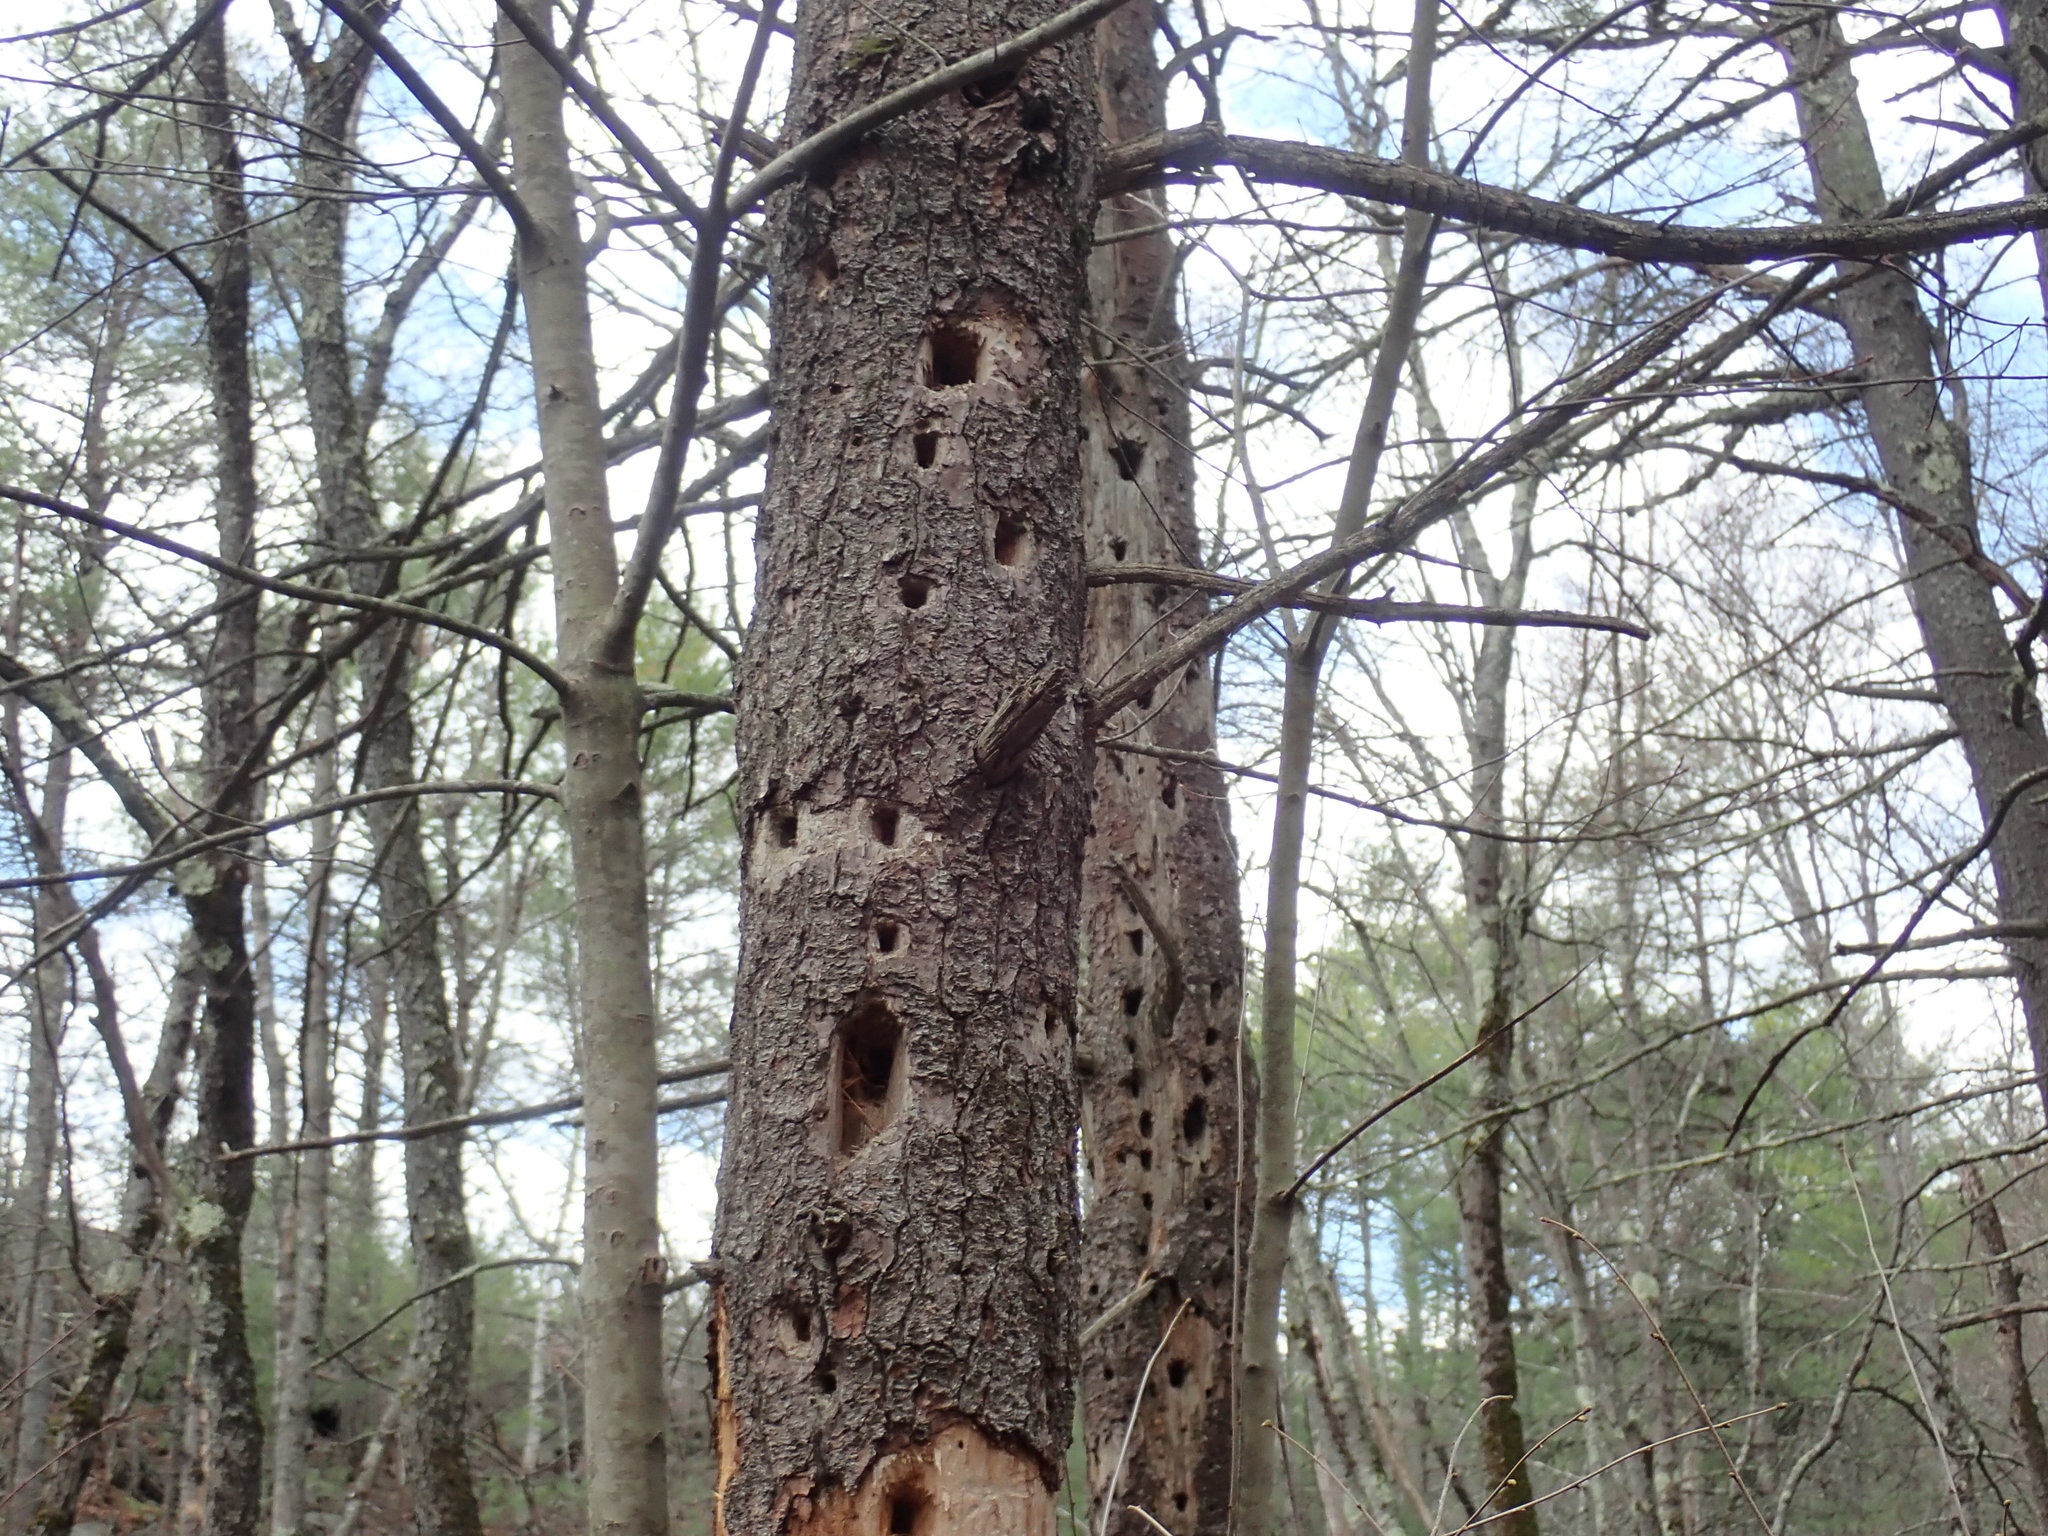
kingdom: Animalia
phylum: Chordata
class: Aves
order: Piciformes
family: Picidae
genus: Dryocopus
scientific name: Dryocopus pileatus
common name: Pileated woodpecker
